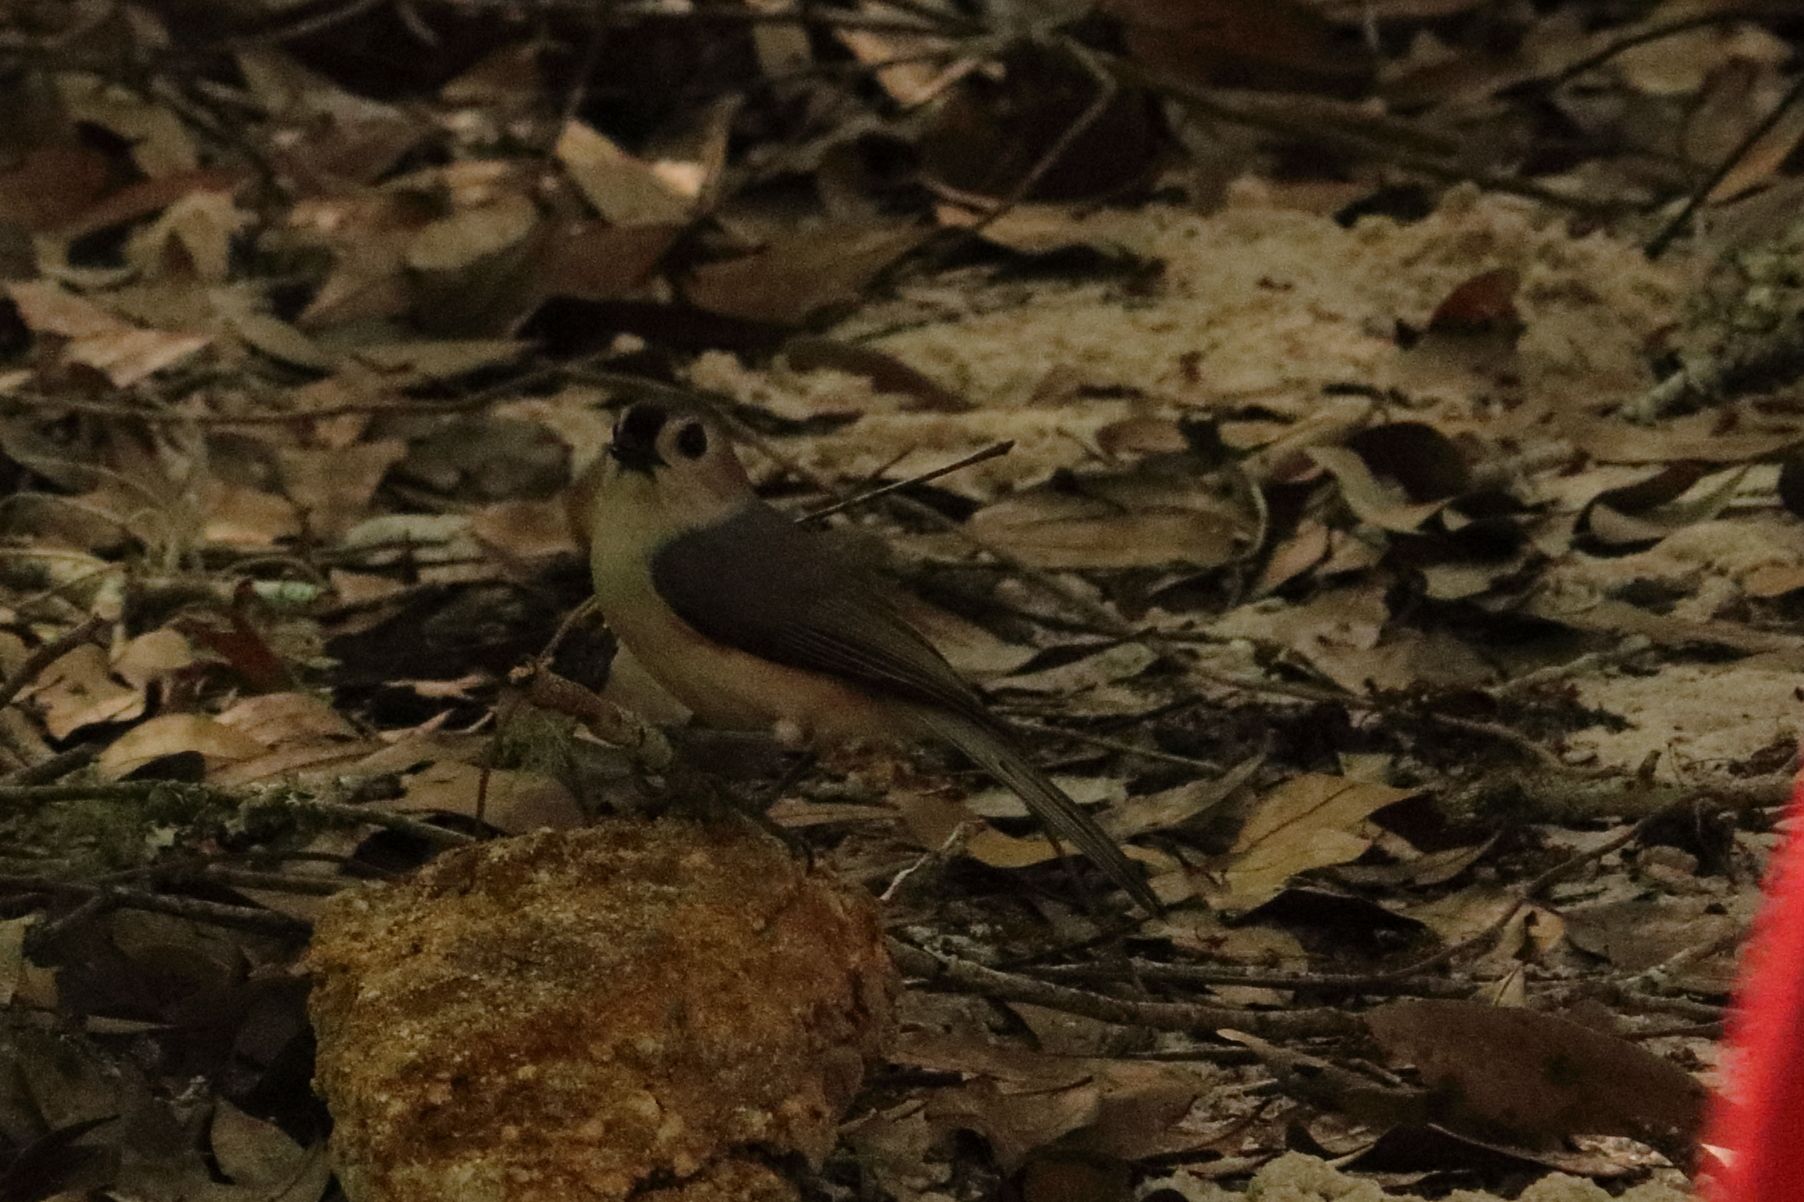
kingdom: Animalia
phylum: Chordata
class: Aves
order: Passeriformes
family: Paridae
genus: Baeolophus
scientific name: Baeolophus bicolor
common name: Tufted titmouse
